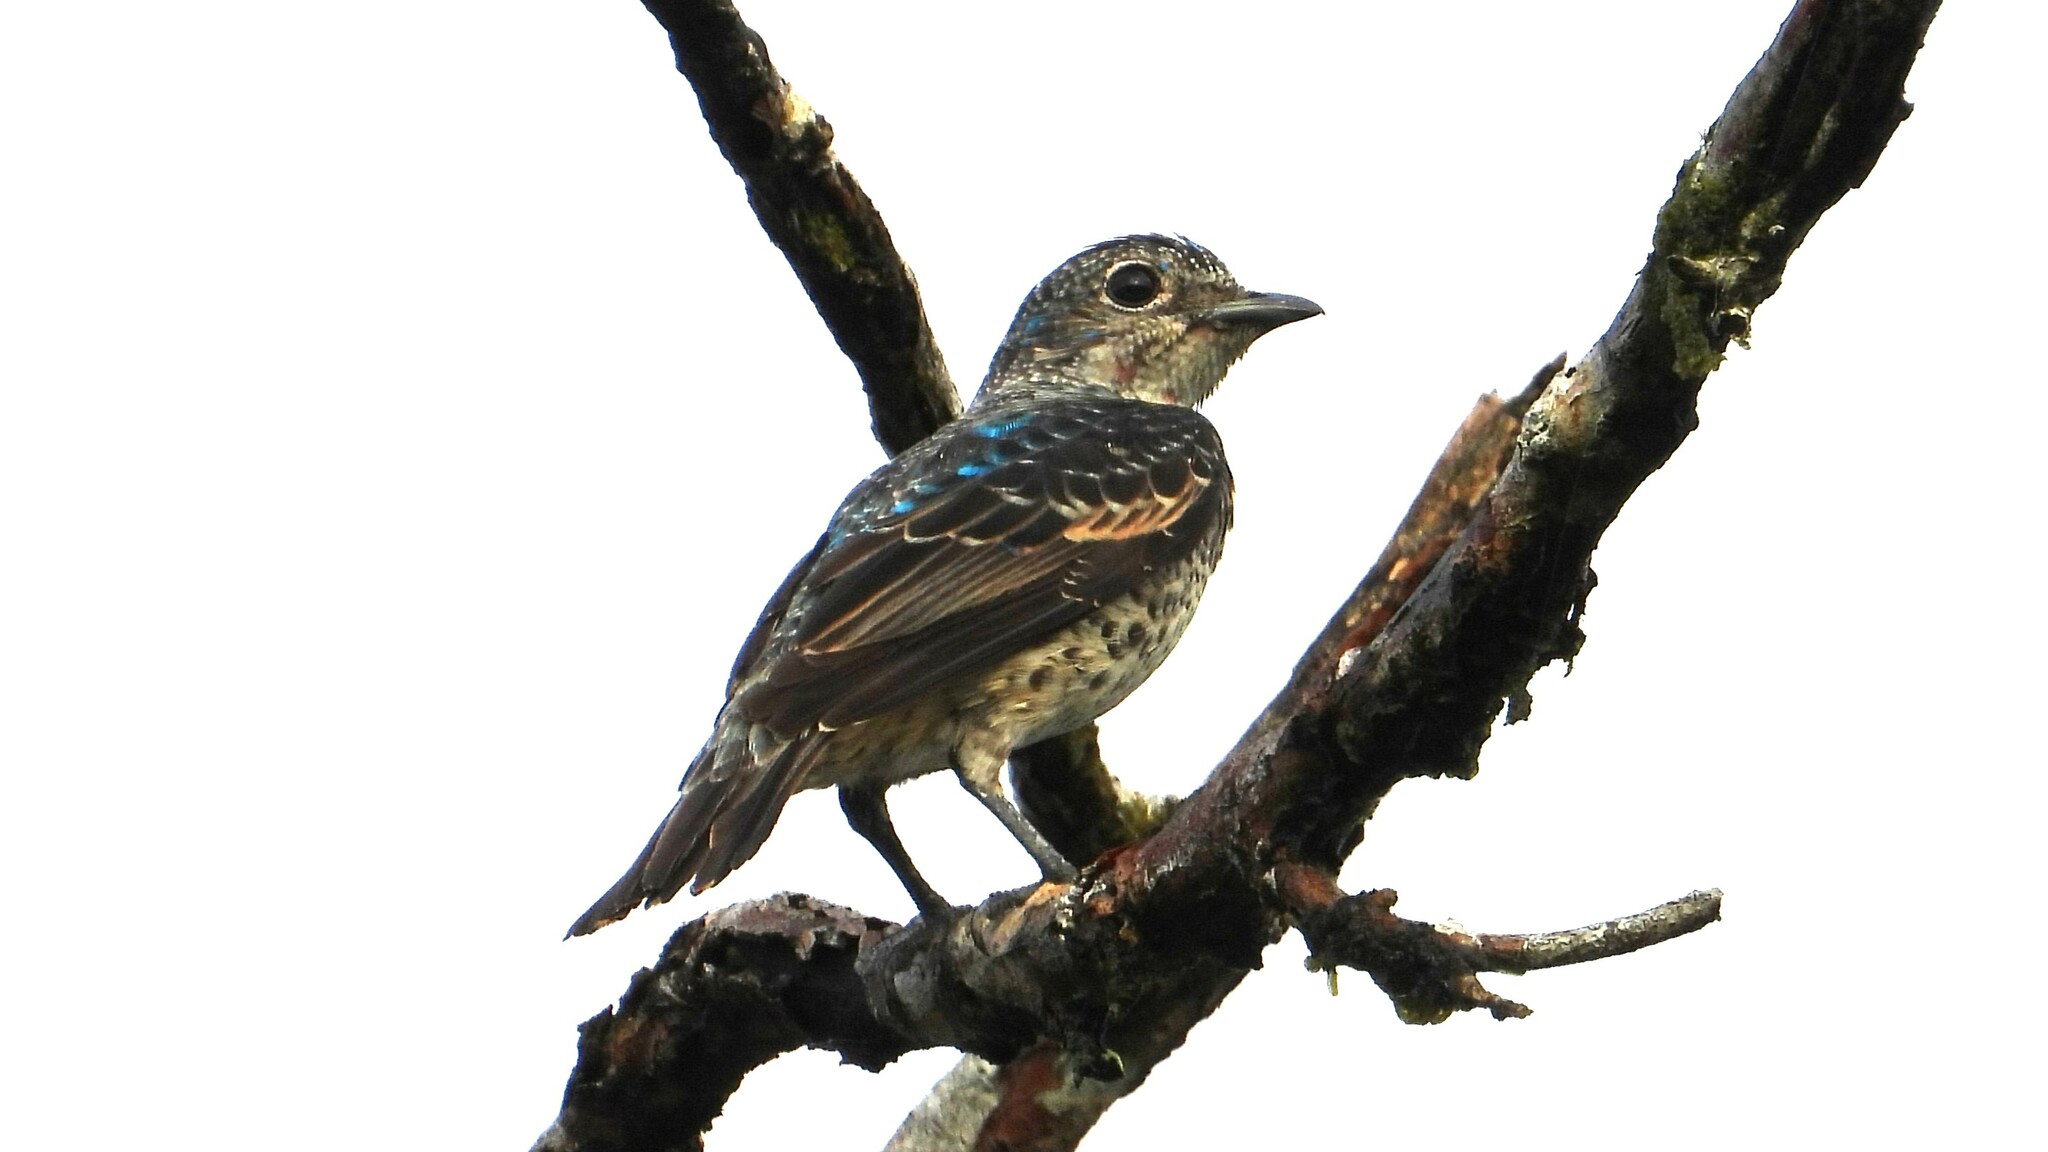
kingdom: Animalia
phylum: Chordata
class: Aves
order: Passeriformes
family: Cotingidae
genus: Cotinga
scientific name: Cotinga ridgwayi
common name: Turquoise cotinga
